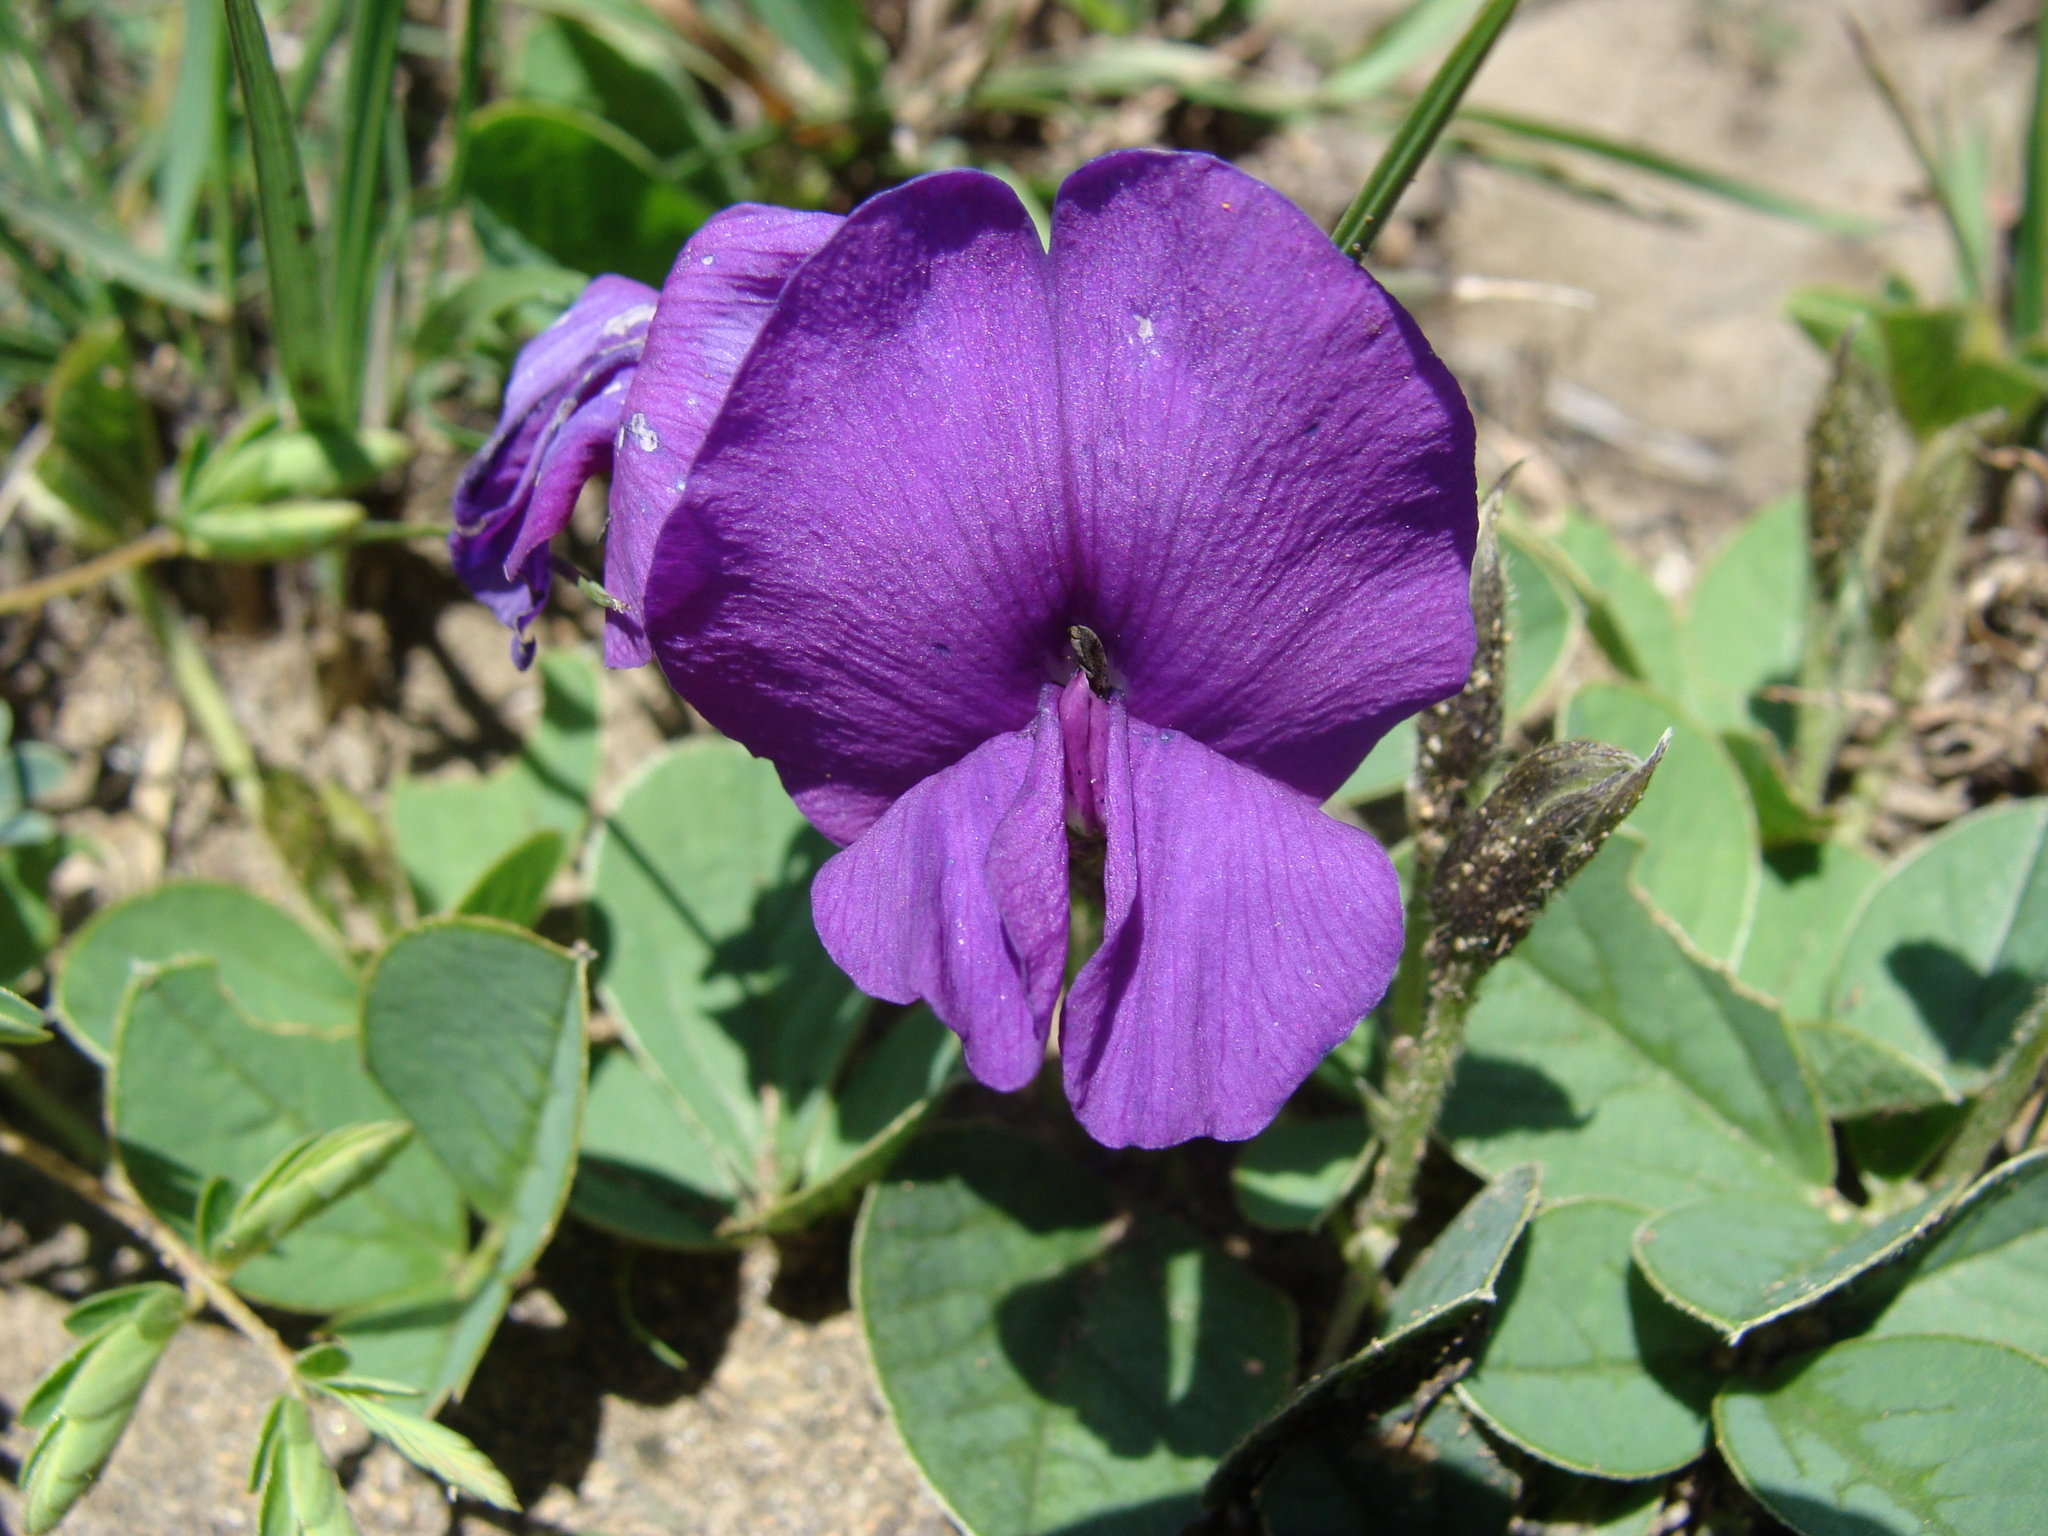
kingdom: Plantae
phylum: Tracheophyta
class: Magnoliopsida
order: Fabales
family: Fabaceae
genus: Cologania
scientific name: Cologania obovata
